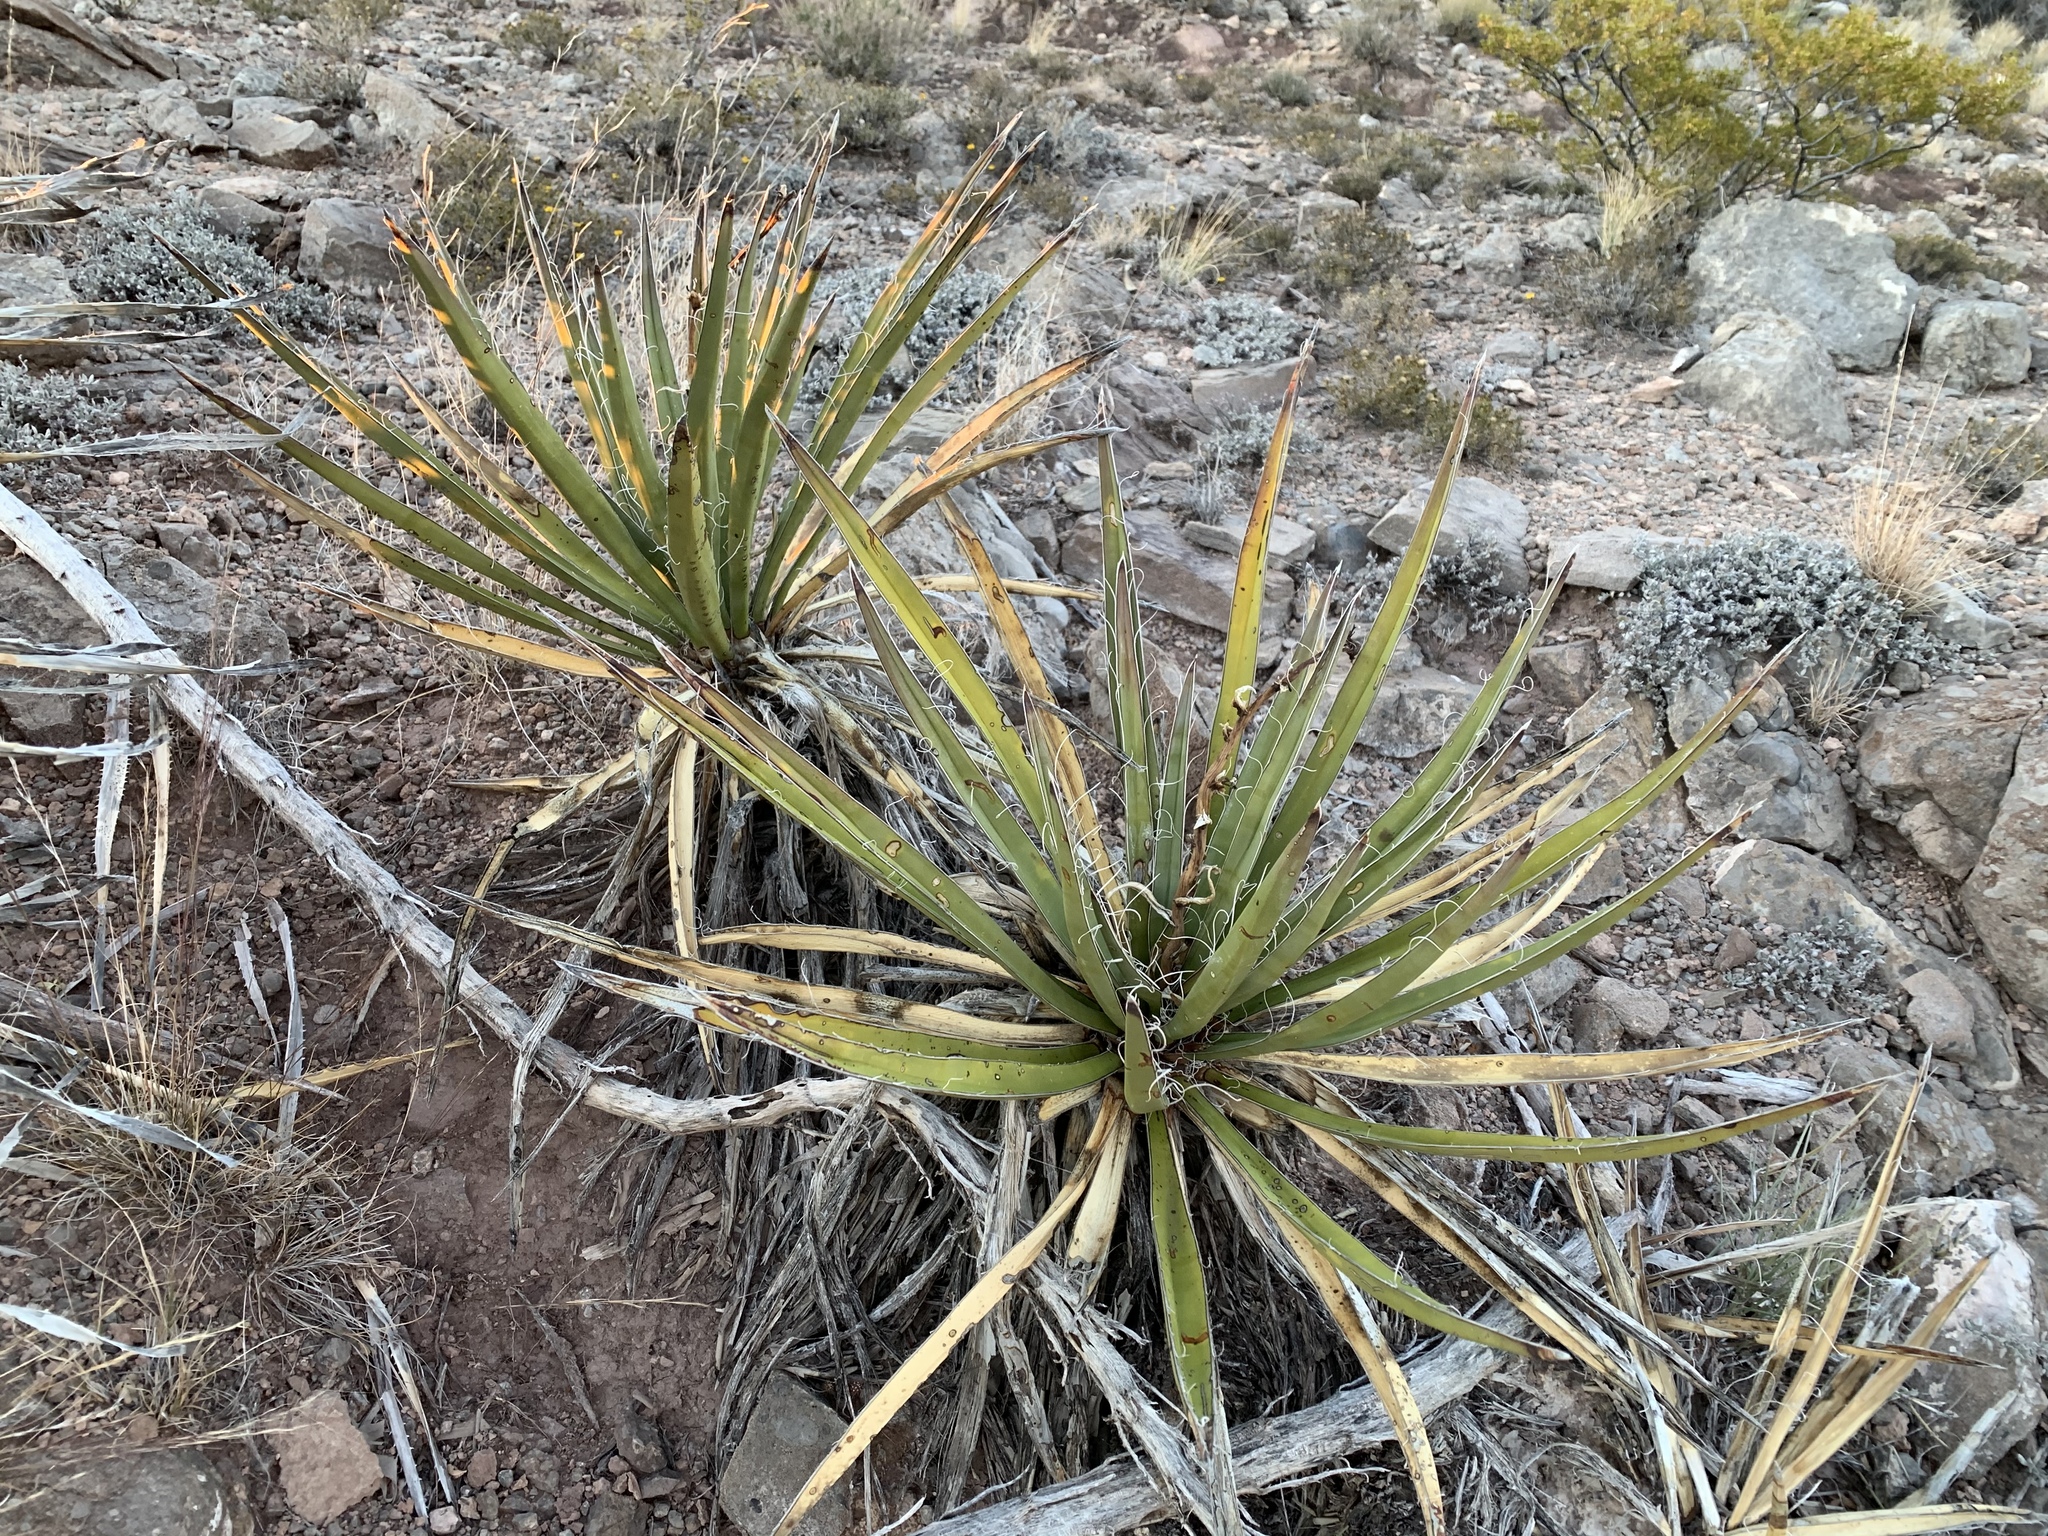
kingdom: Plantae
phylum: Tracheophyta
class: Liliopsida
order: Asparagales
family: Asparagaceae
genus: Yucca
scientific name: Yucca baccata
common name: Banana yucca
